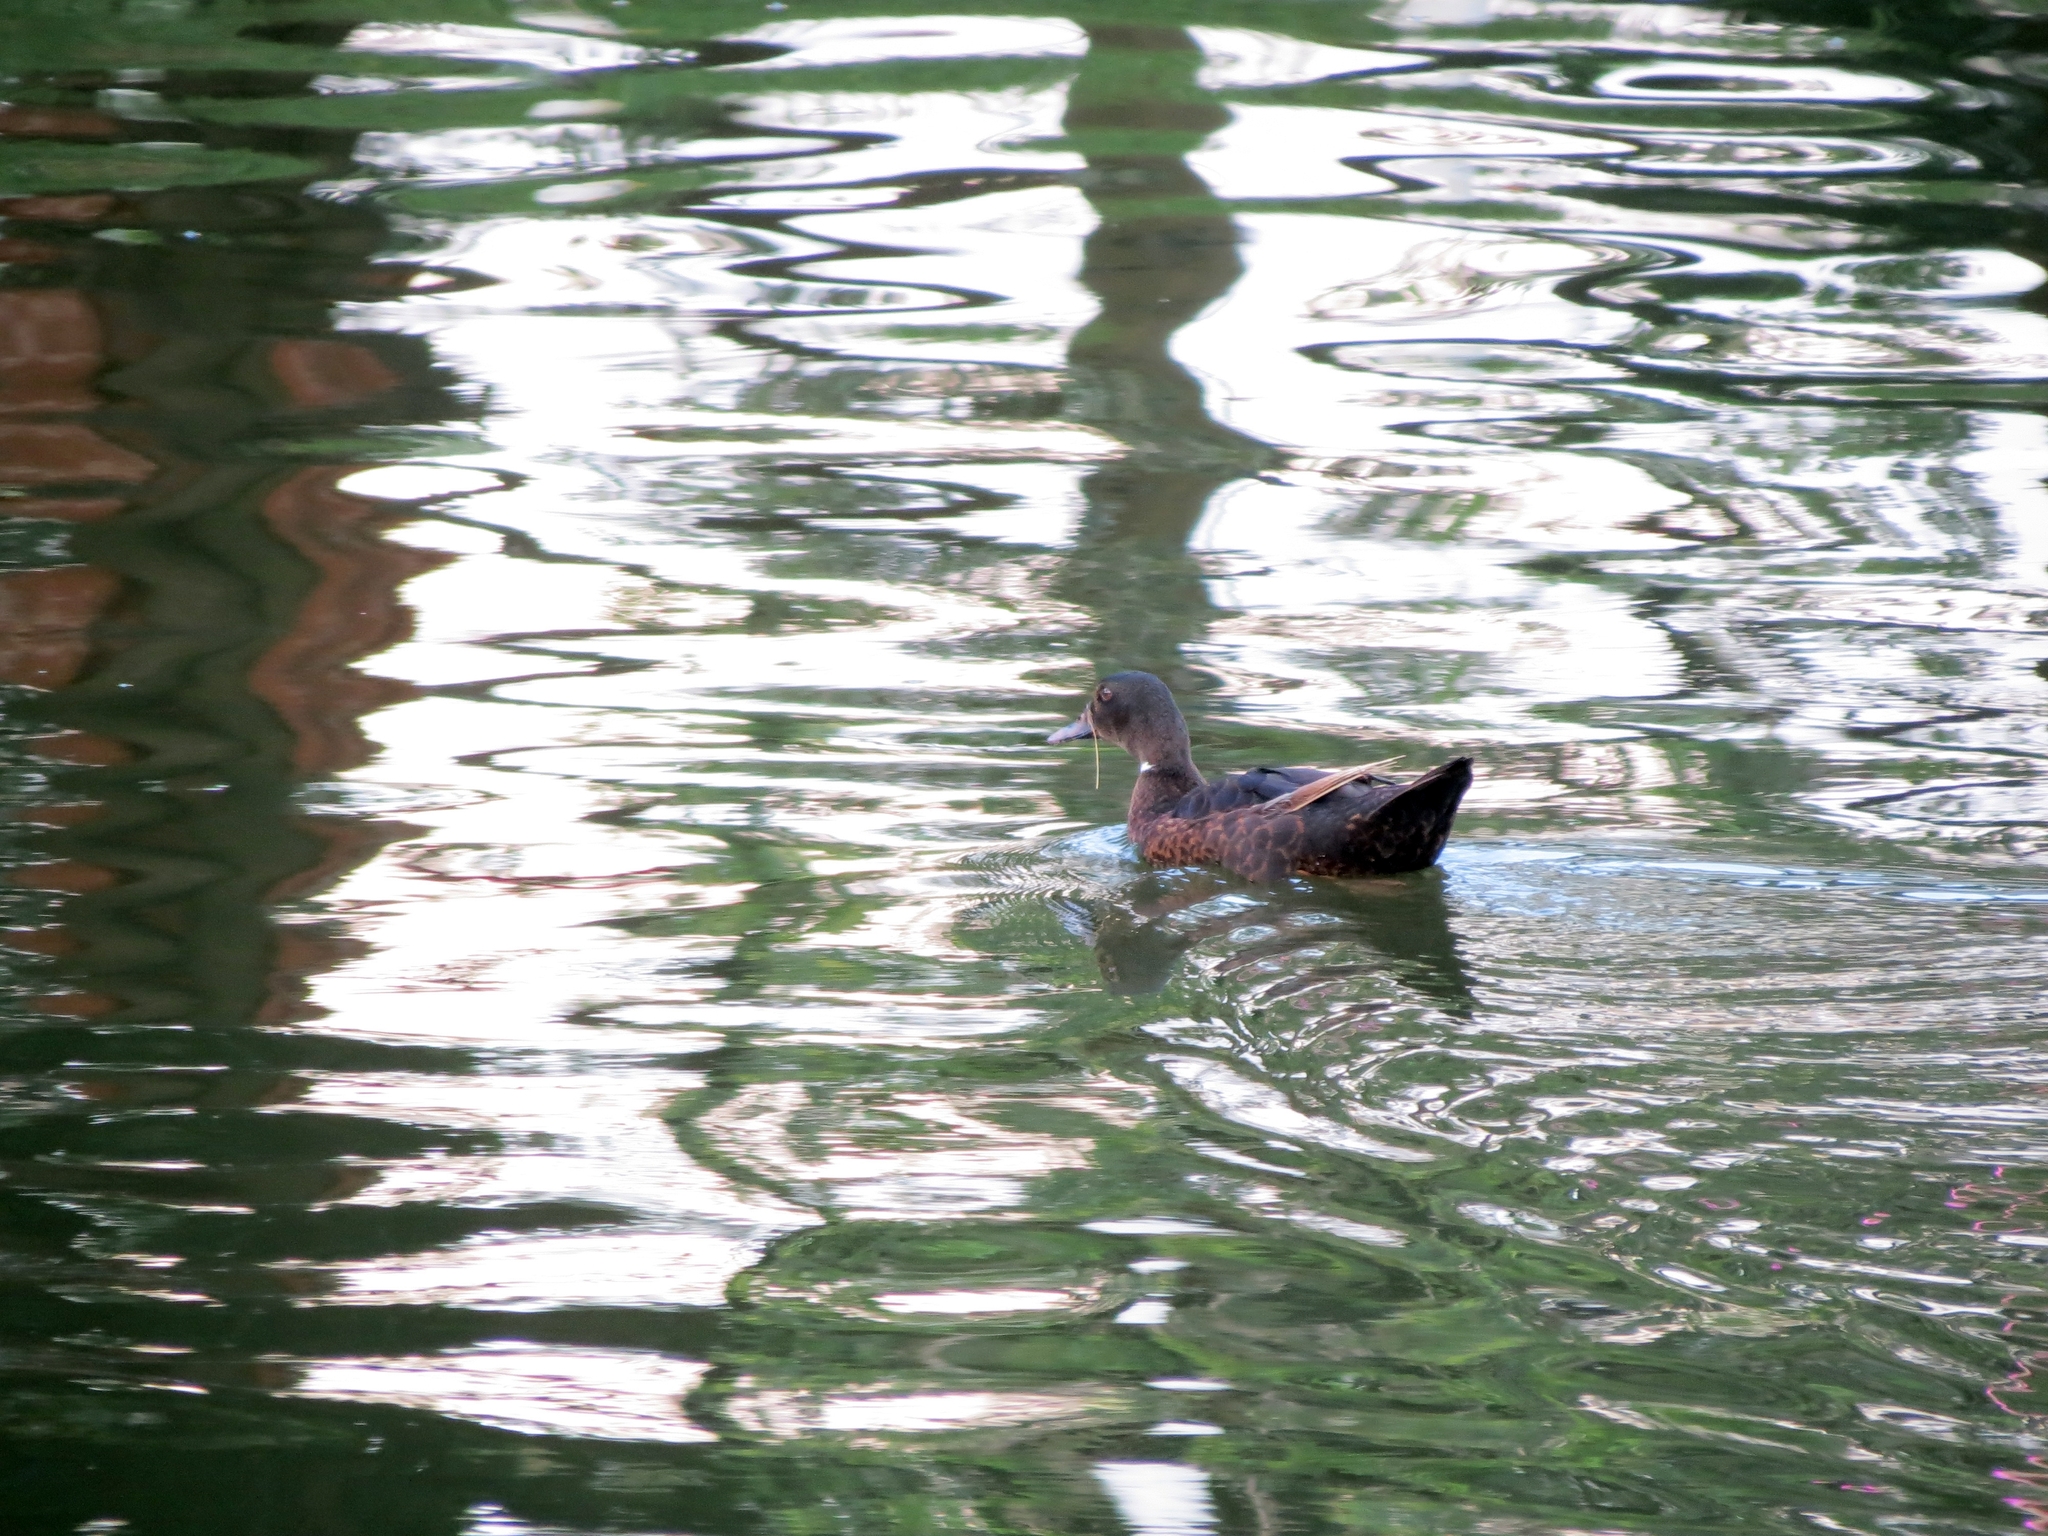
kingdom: Animalia
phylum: Chordata
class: Aves
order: Anseriformes
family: Anatidae
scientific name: Anatidae
